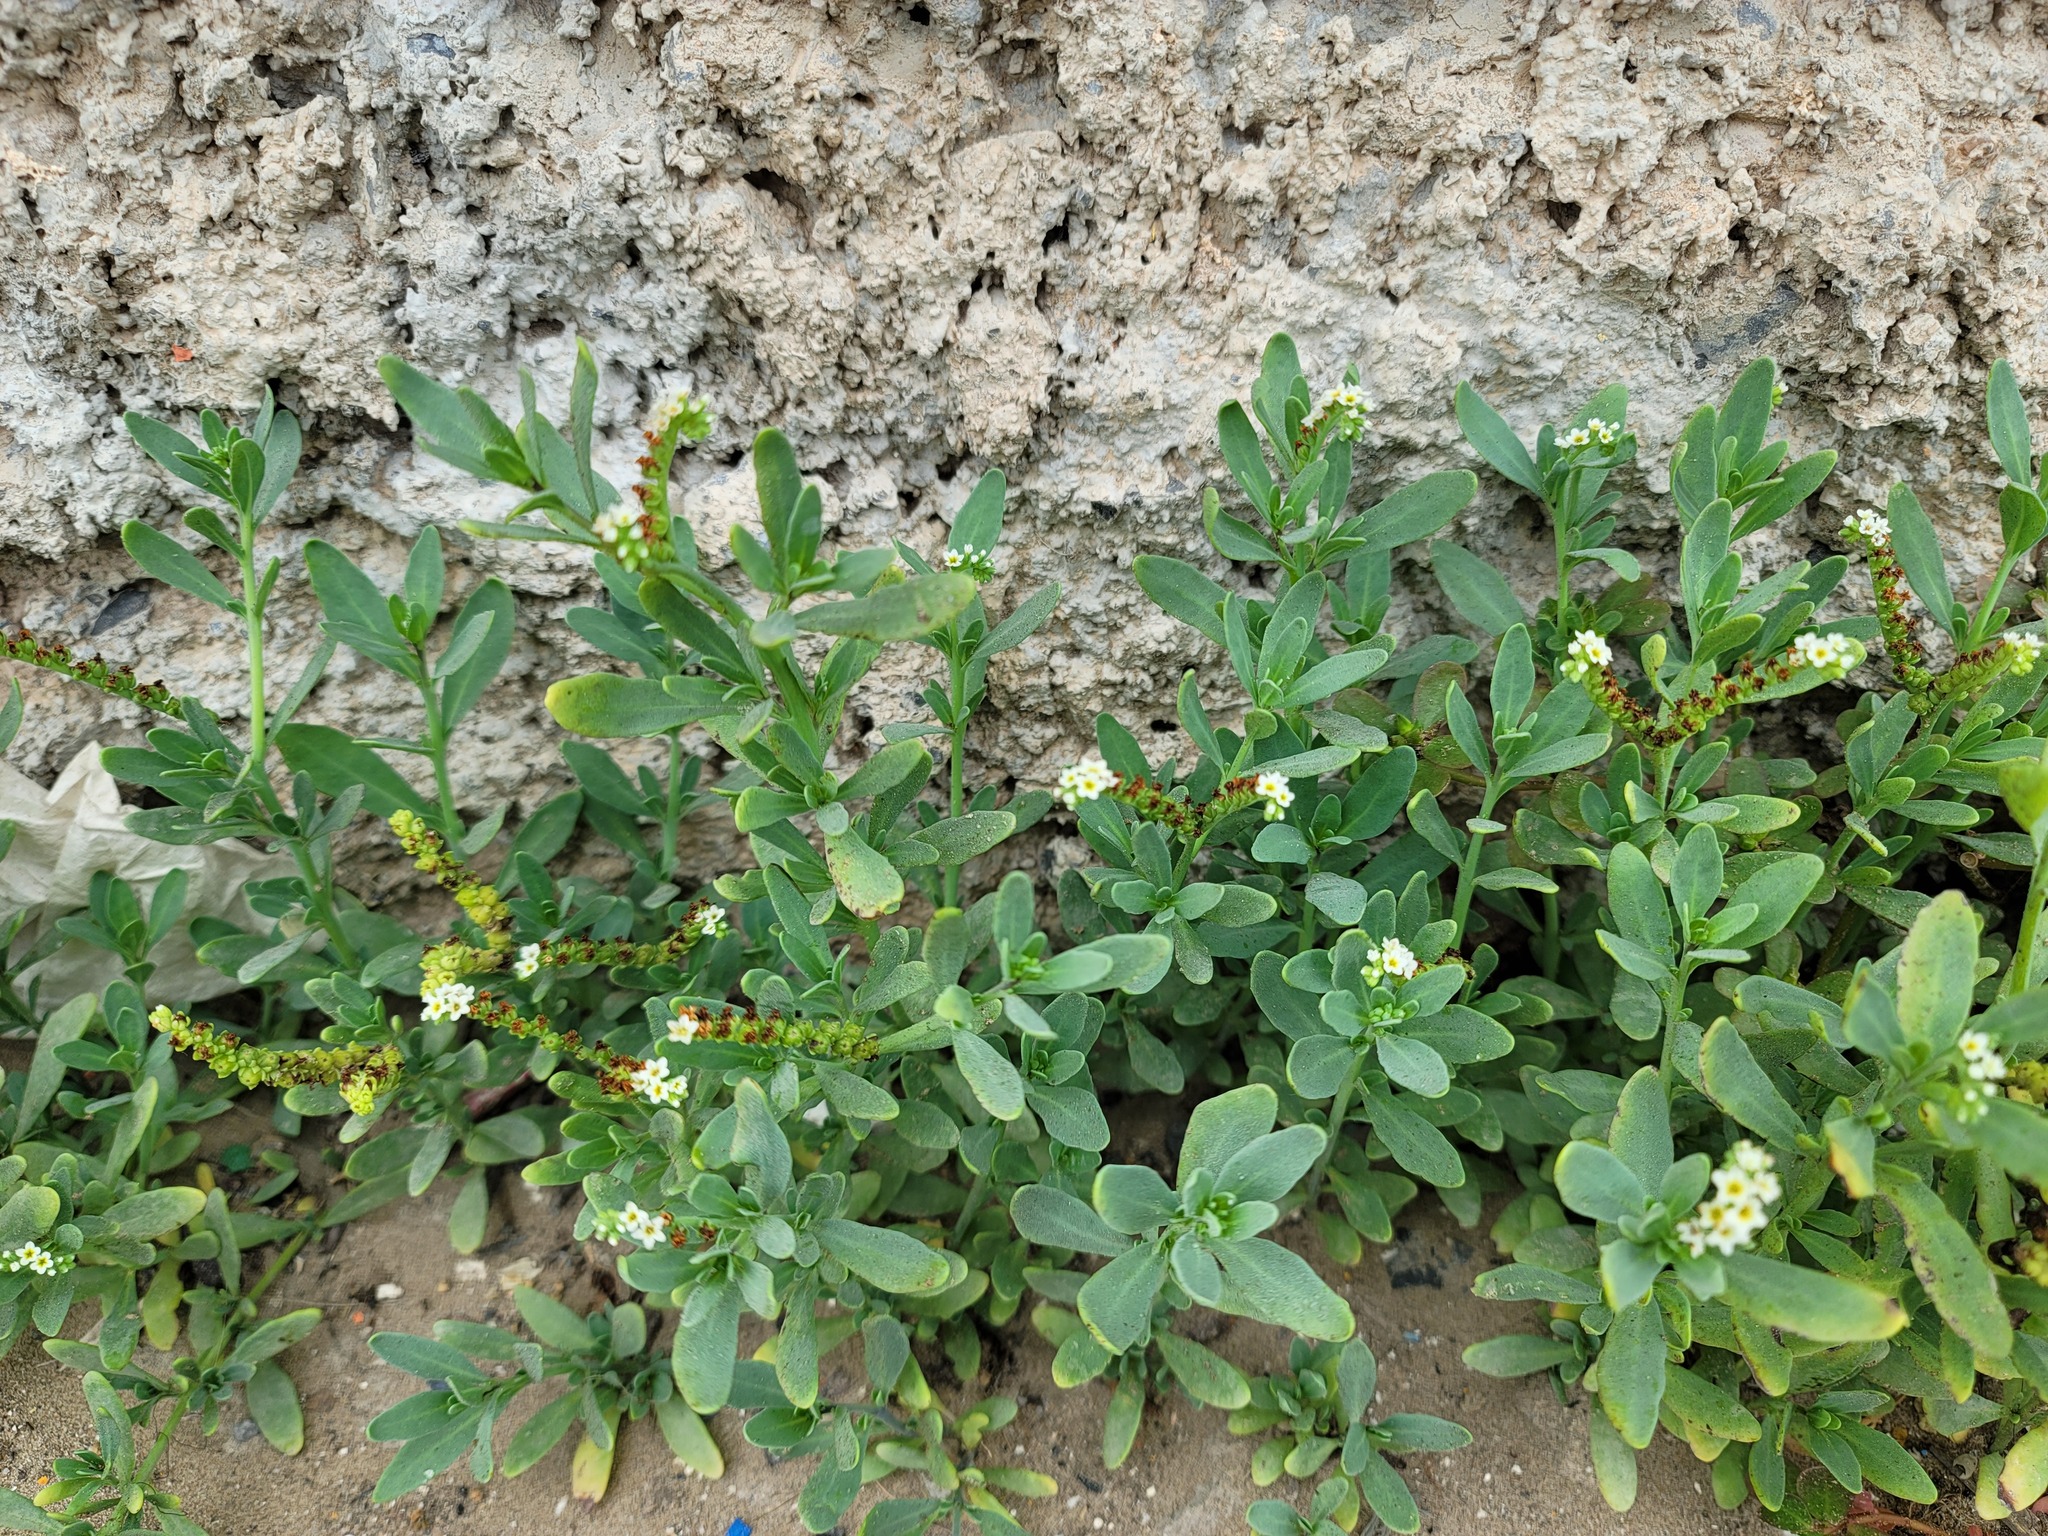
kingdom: Plantae
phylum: Tracheophyta
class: Magnoliopsida
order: Boraginales
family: Heliotropiaceae
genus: Heliotropium
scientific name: Heliotropium curassavicum
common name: Seaside heliotrope
